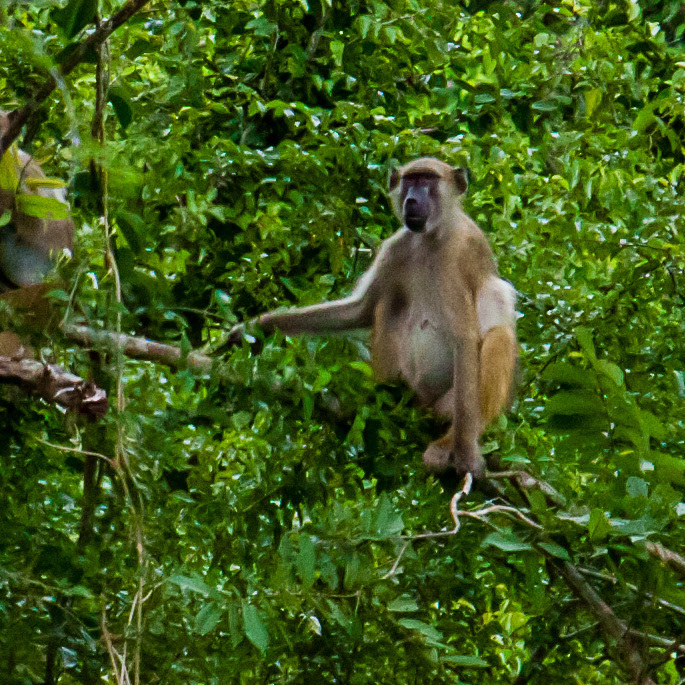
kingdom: Animalia
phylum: Chordata
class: Mammalia
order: Primates
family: Cercopithecidae
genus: Papio
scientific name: Papio ursinus
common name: Chacma baboon
